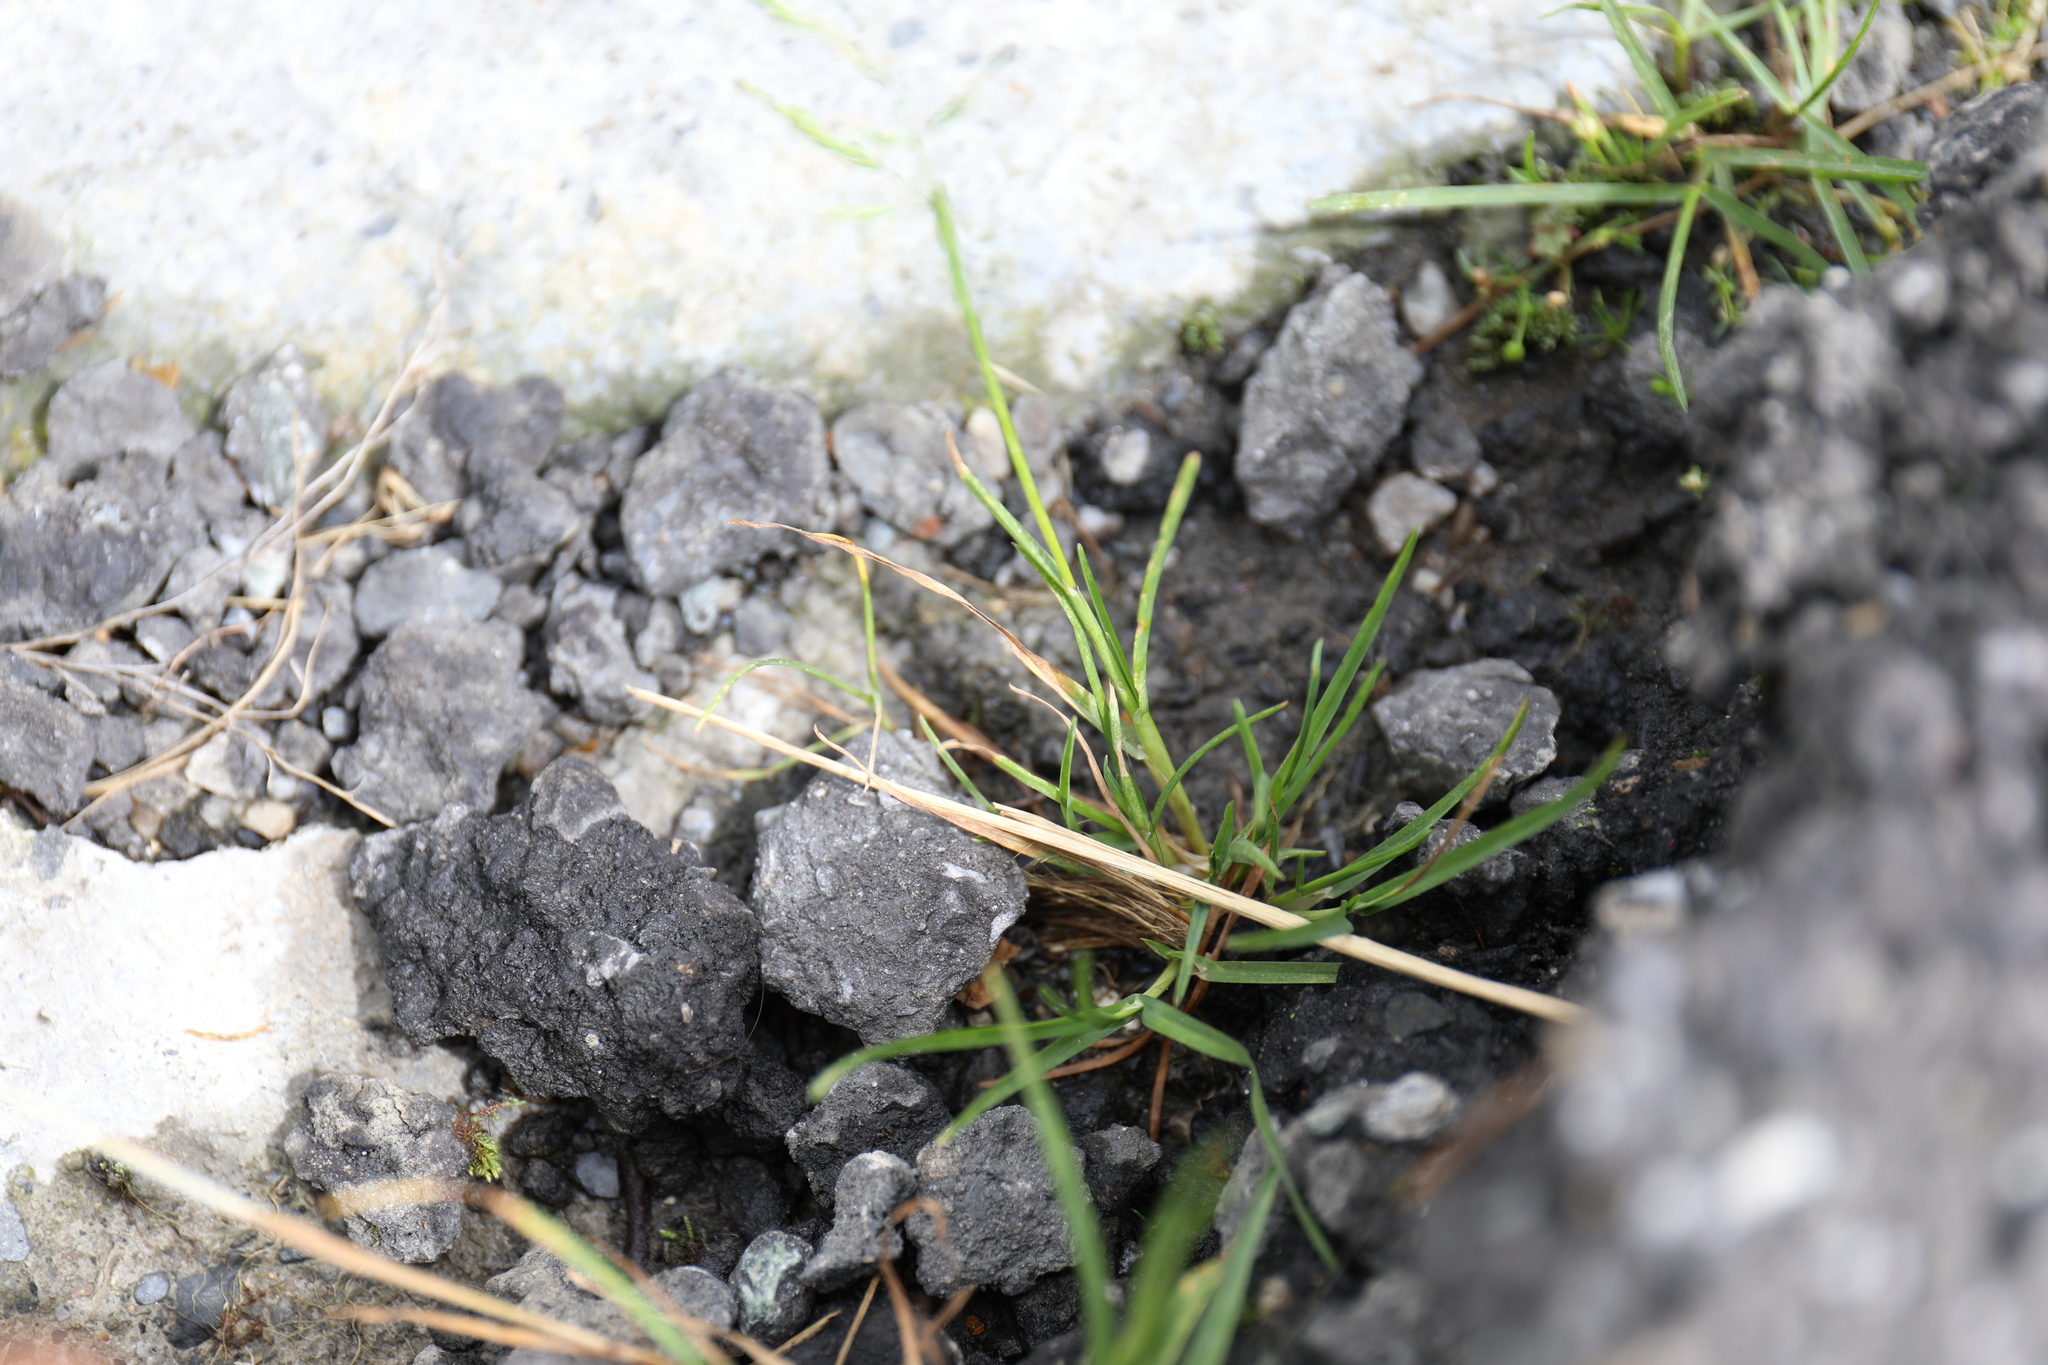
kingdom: Plantae
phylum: Tracheophyta
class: Liliopsida
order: Poales
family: Poaceae
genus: Poa
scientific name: Poa annua
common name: Annual bluegrass
